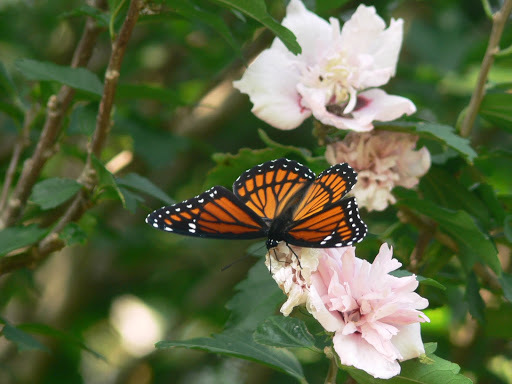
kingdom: Animalia
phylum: Arthropoda
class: Insecta
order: Lepidoptera
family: Nymphalidae
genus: Limenitis
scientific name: Limenitis archippus
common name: Viceroy
